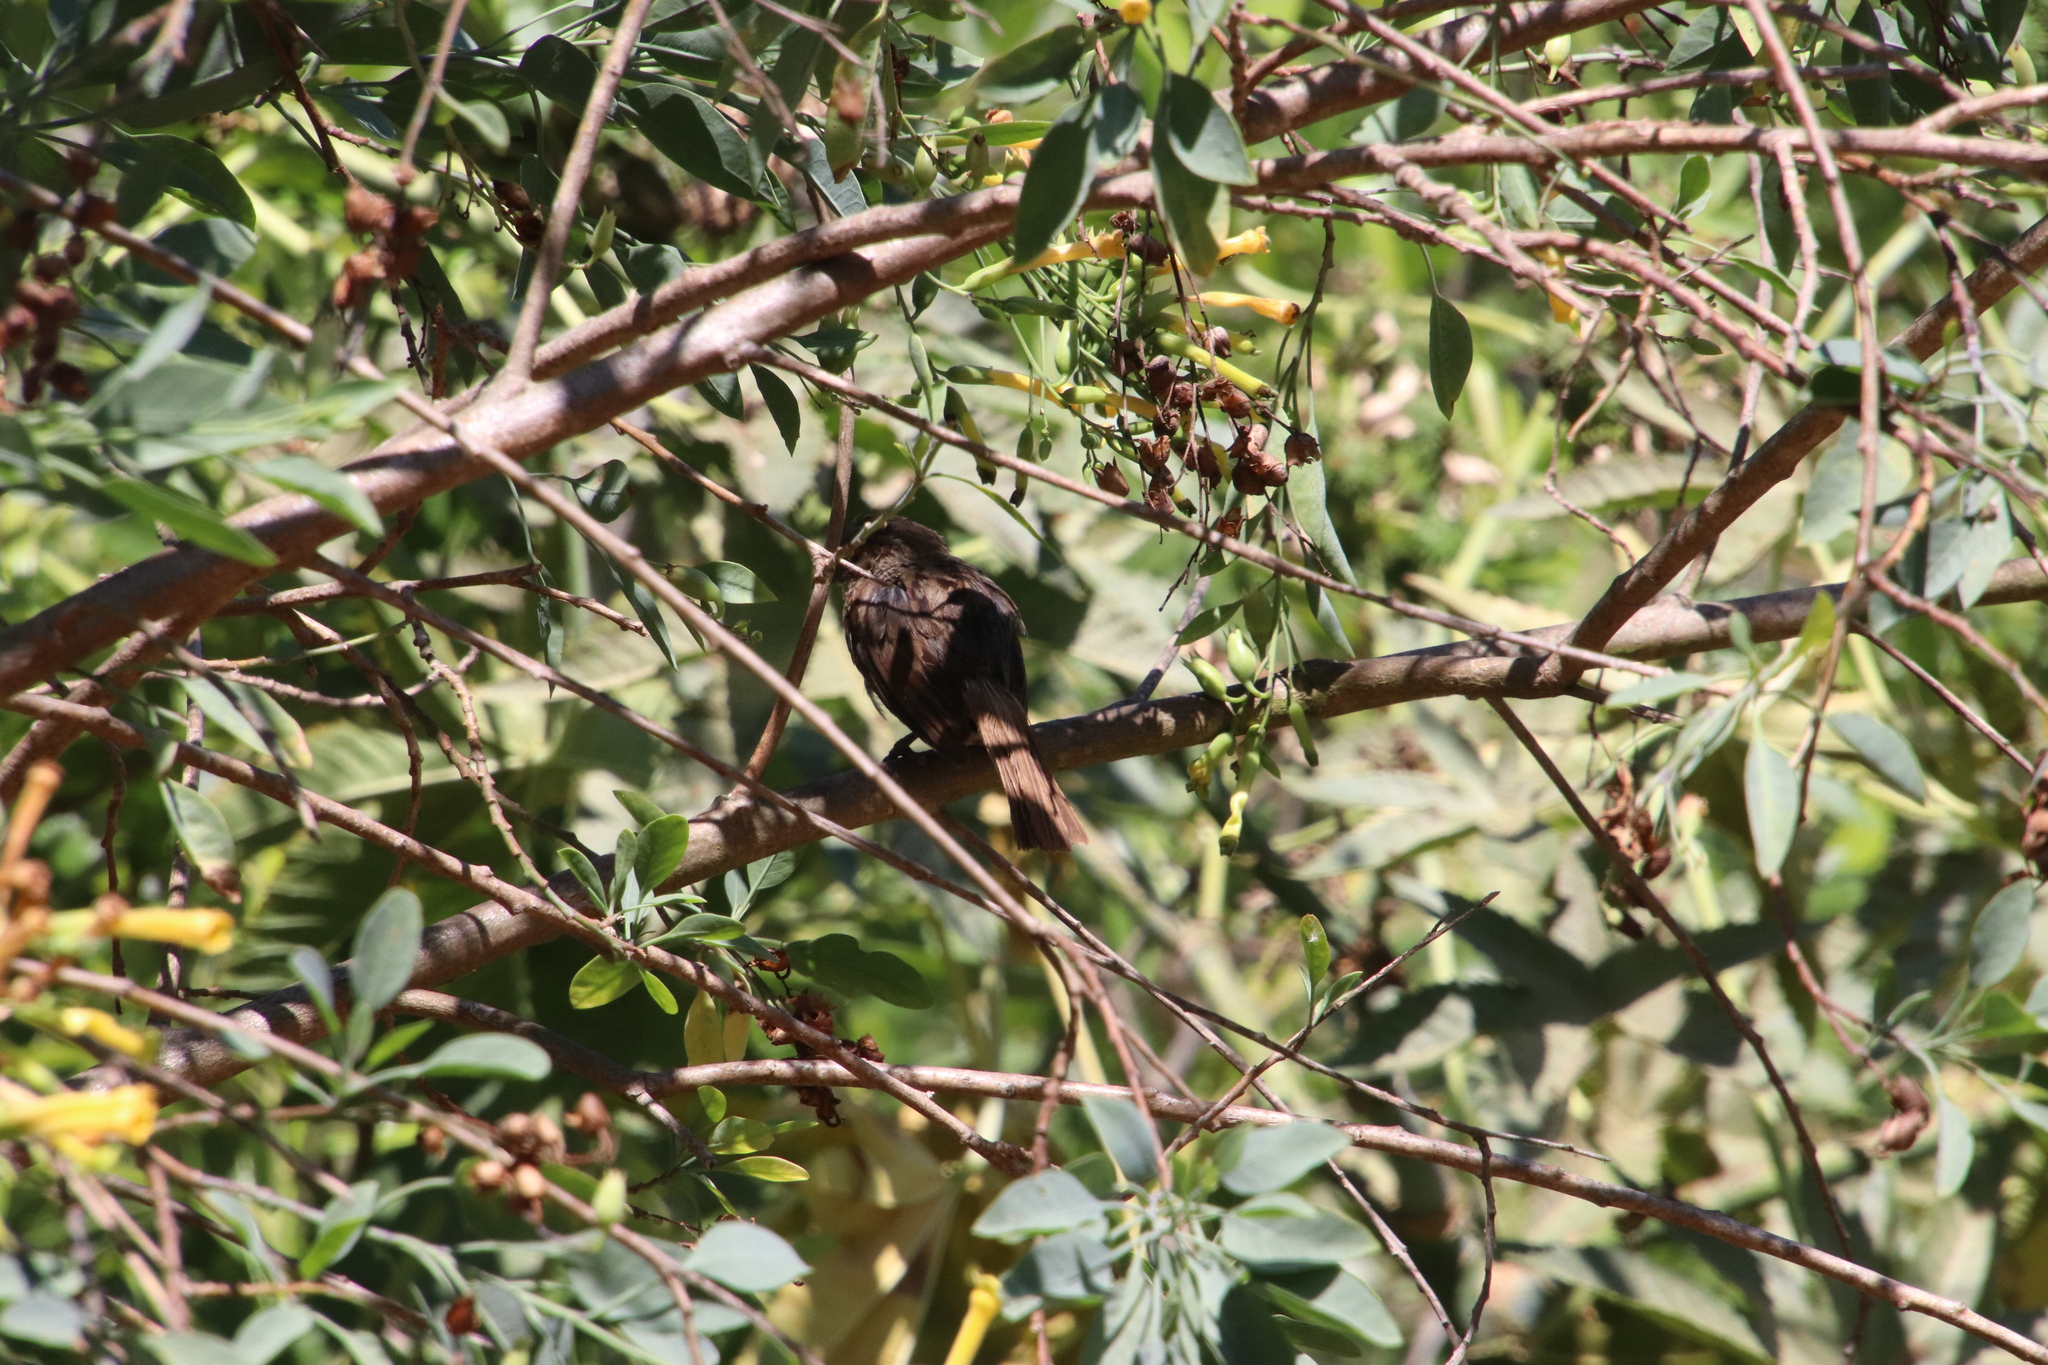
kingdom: Animalia
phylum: Chordata
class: Aves
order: Passeriformes
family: Passerellidae
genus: Melospiza
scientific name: Melospiza melodia
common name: Song sparrow
